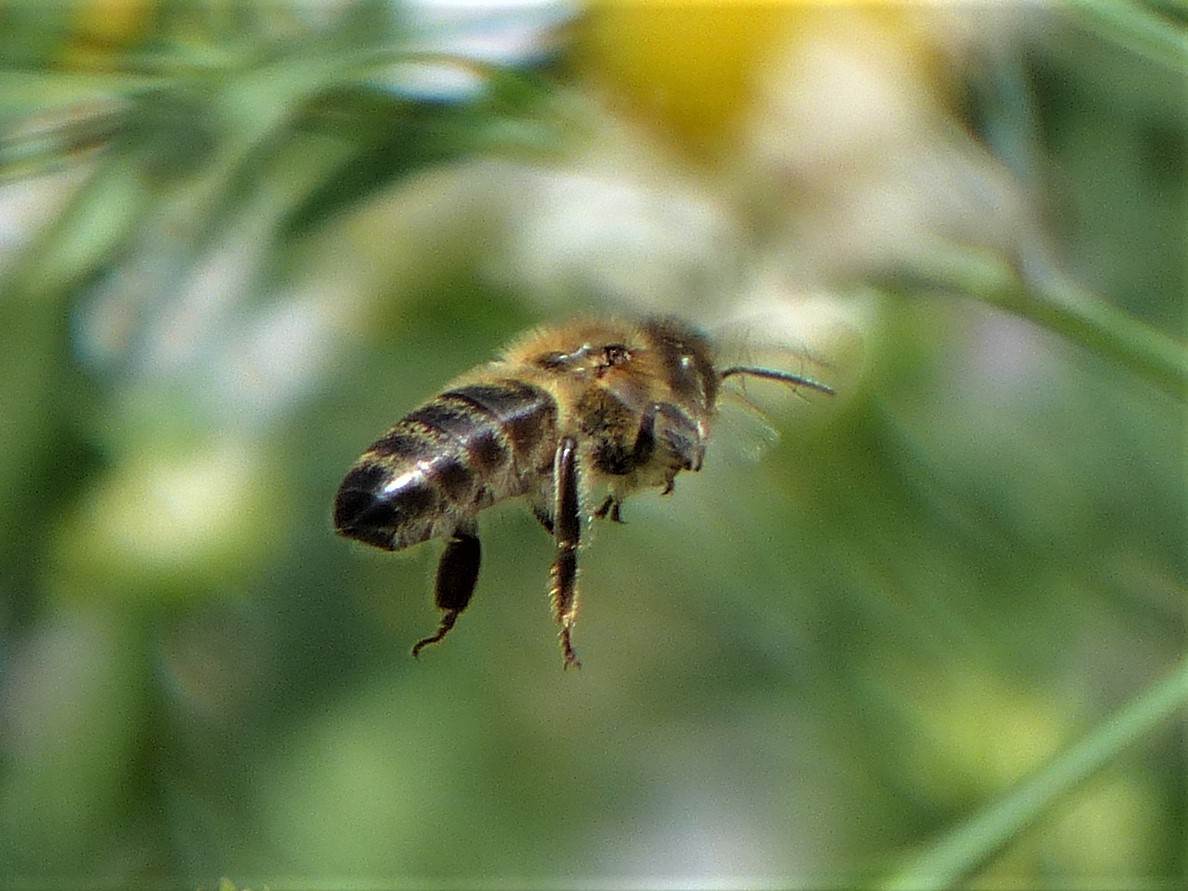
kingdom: Animalia
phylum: Arthropoda
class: Insecta
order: Hymenoptera
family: Apidae
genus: Apis
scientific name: Apis mellifera
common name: Honey bee
